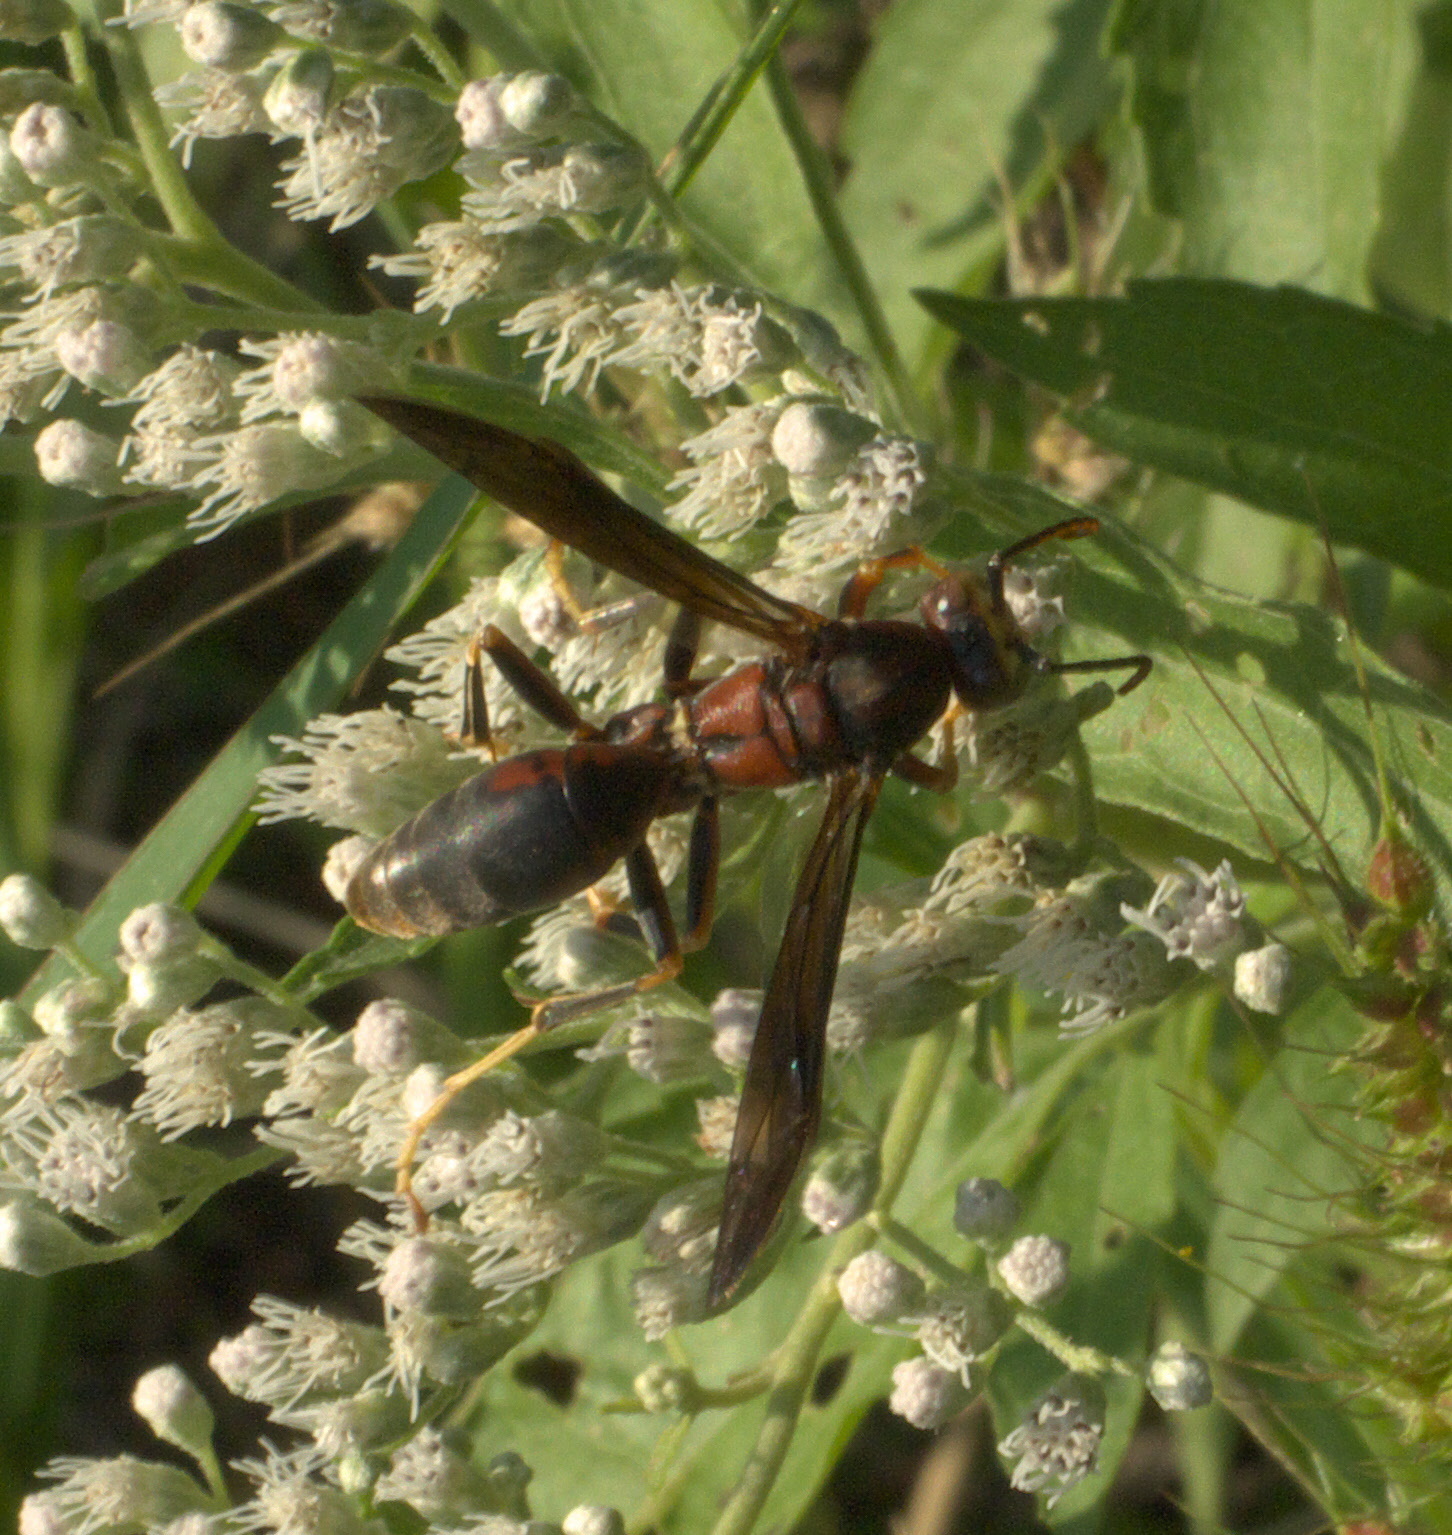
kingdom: Animalia
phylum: Arthropoda
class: Insecta
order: Hymenoptera
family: Eumenidae
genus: Polistes
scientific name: Polistes metricus
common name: Metric paper wasp
